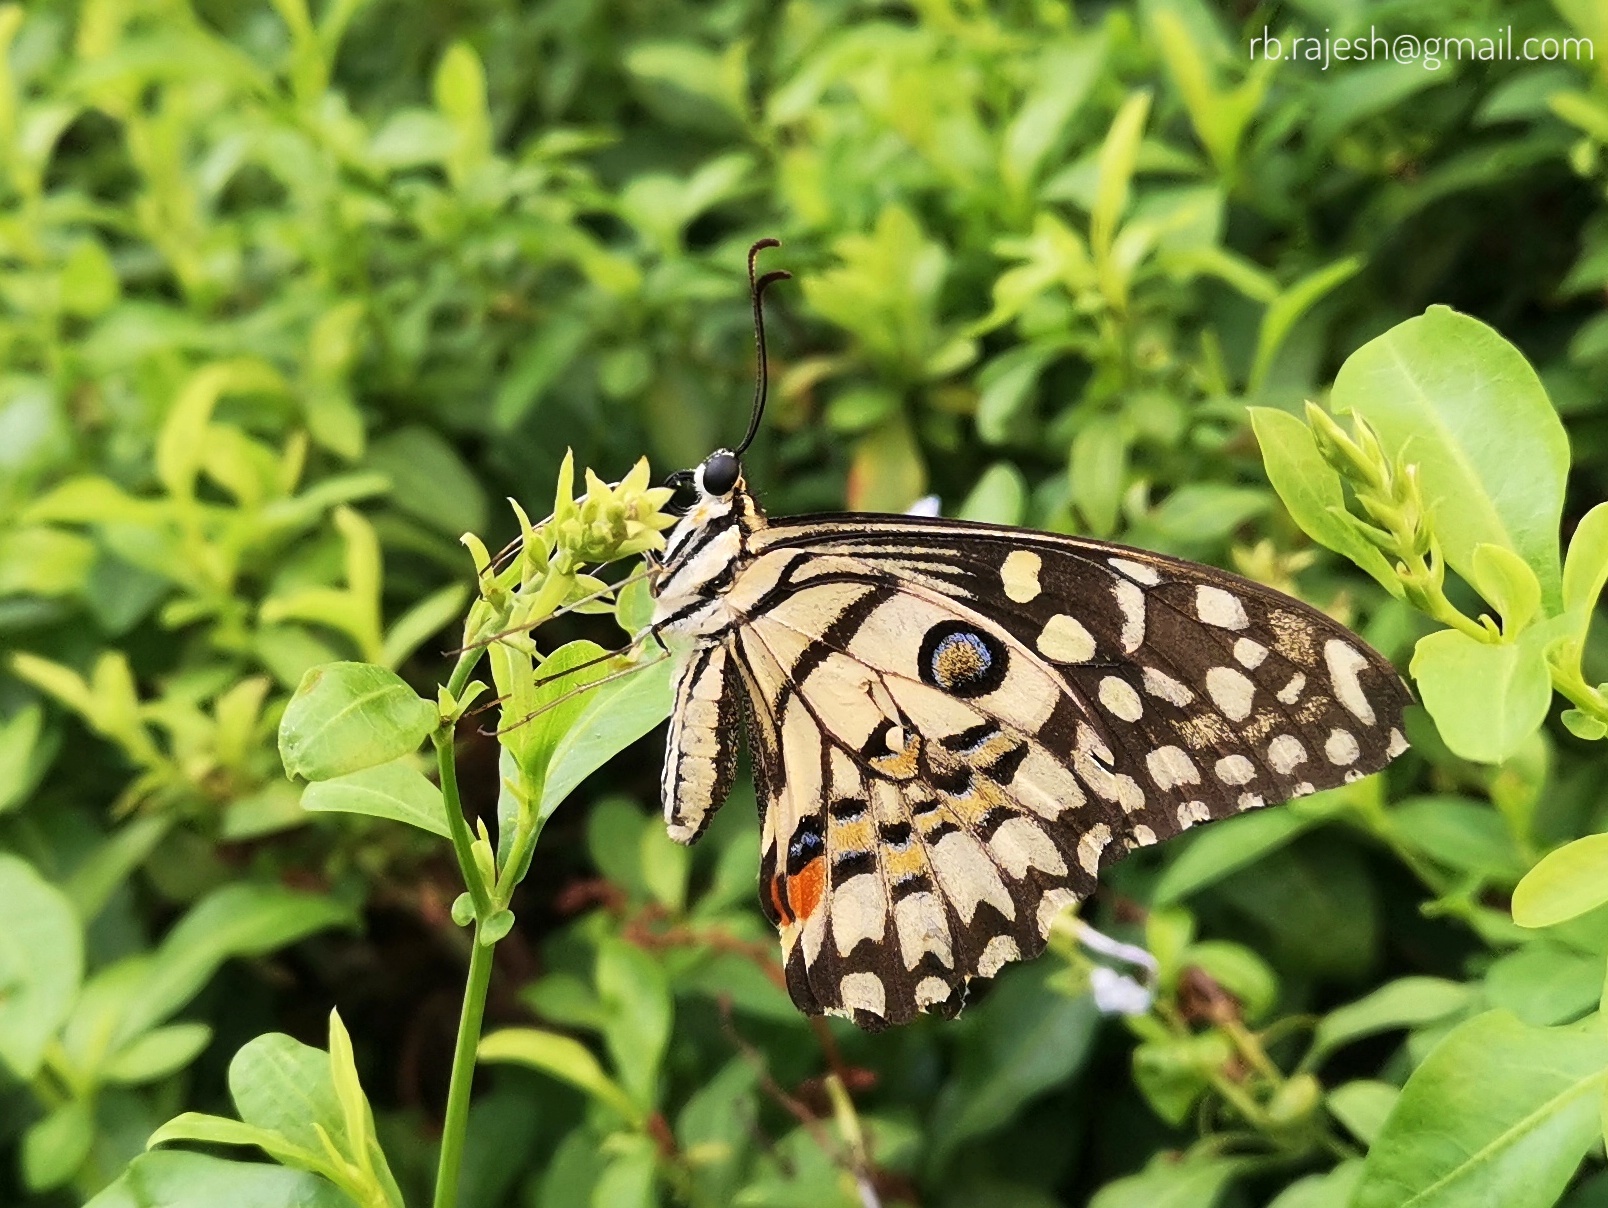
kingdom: Animalia
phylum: Arthropoda
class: Insecta
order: Lepidoptera
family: Papilionidae
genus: Papilio
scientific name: Papilio demoleus
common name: Lime butterfly
